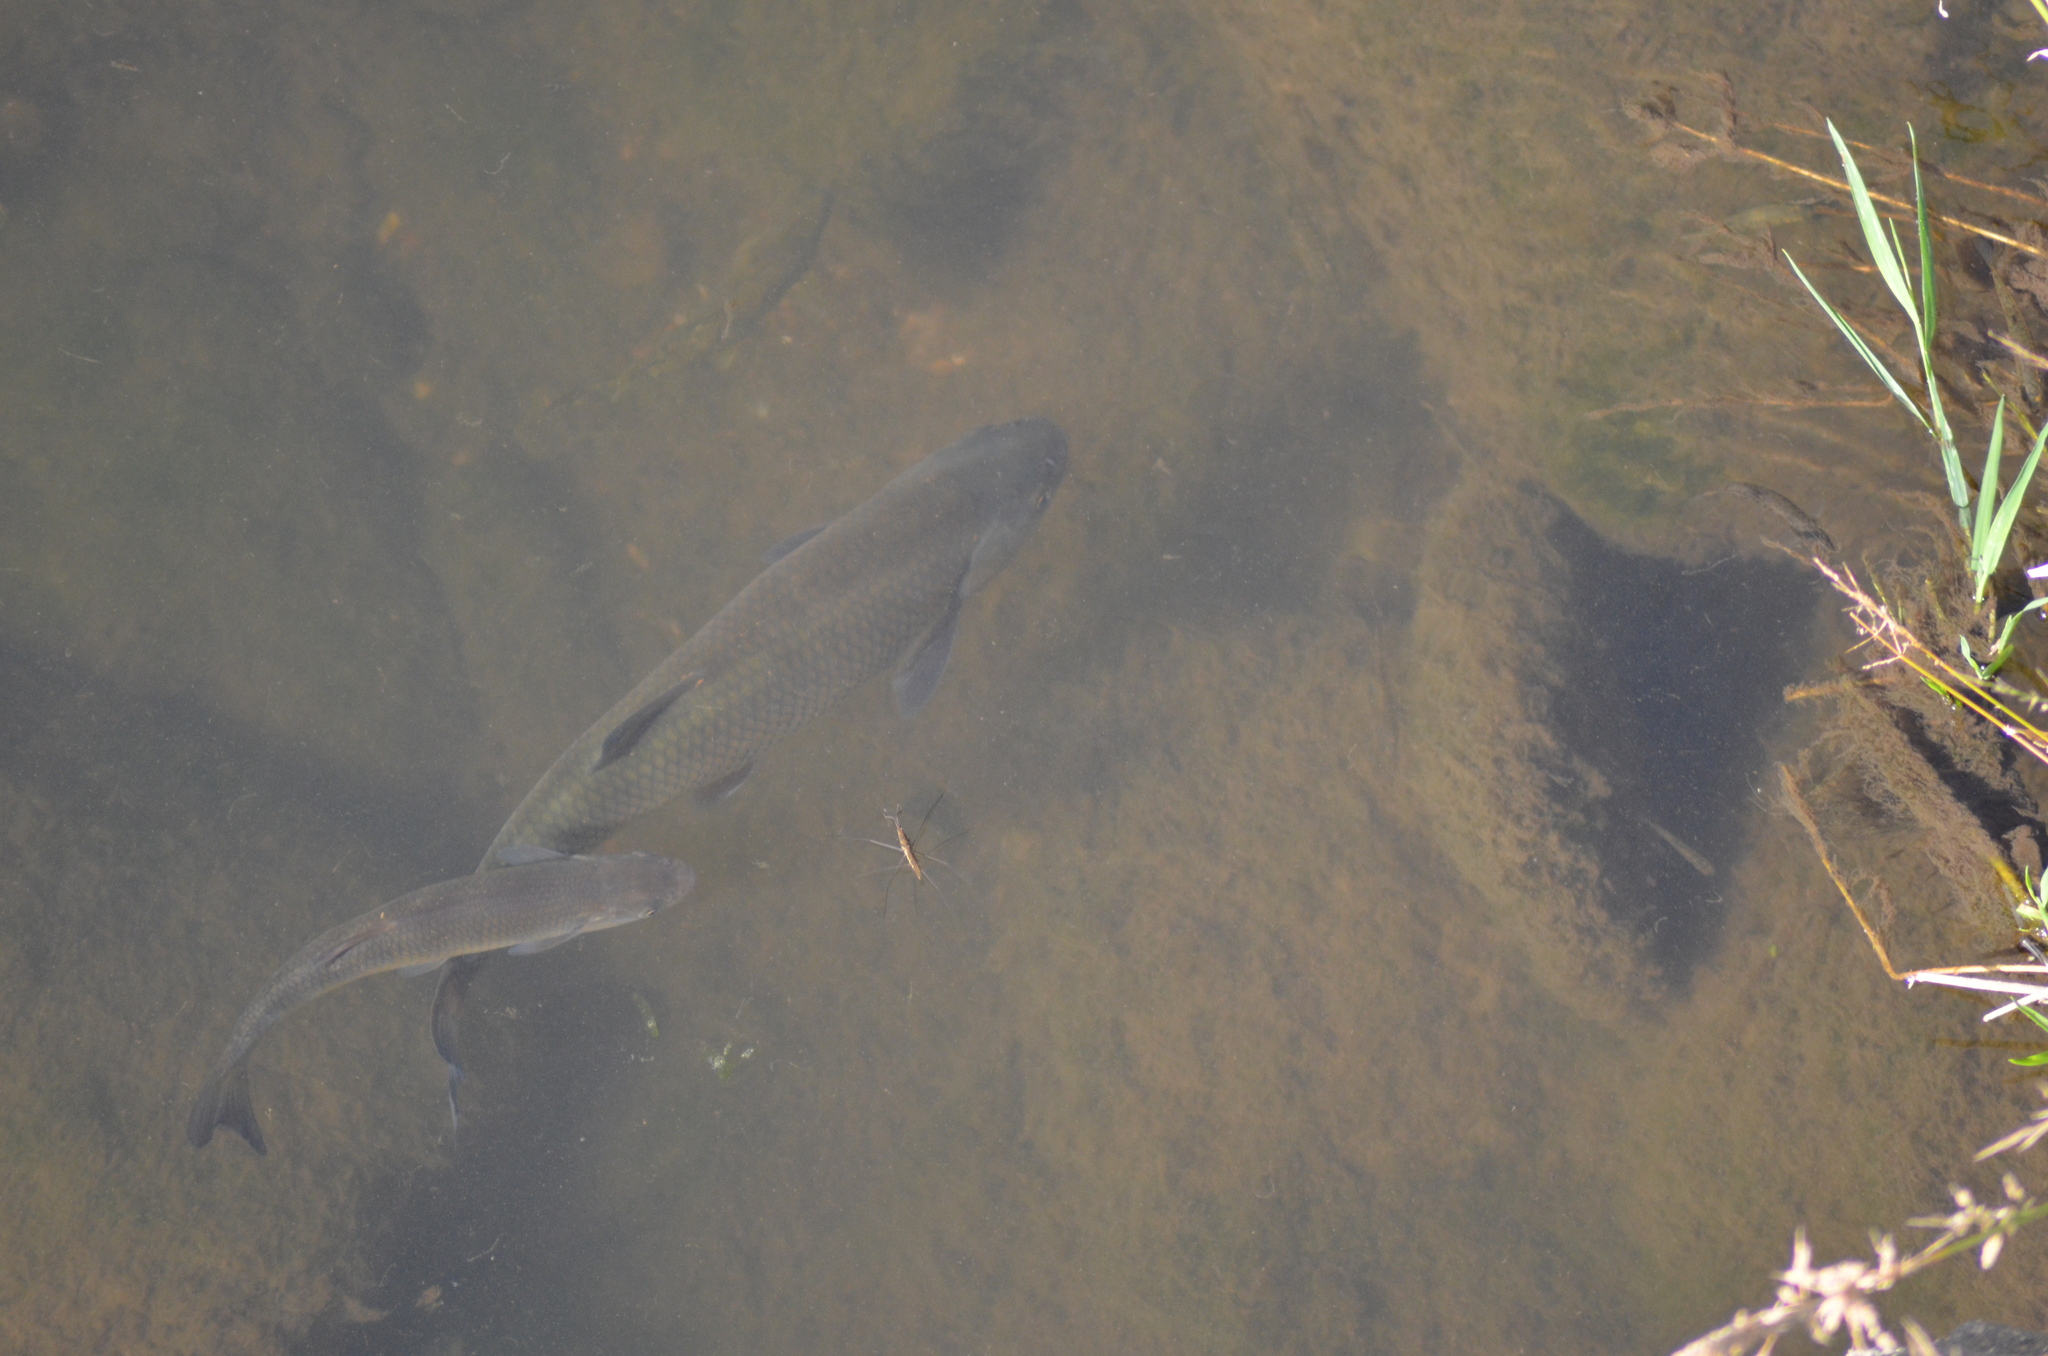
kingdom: Animalia
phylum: Chordata
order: Cypriniformes
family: Cyprinidae
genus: Squalius
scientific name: Squalius laietanus
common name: Catalan chub
